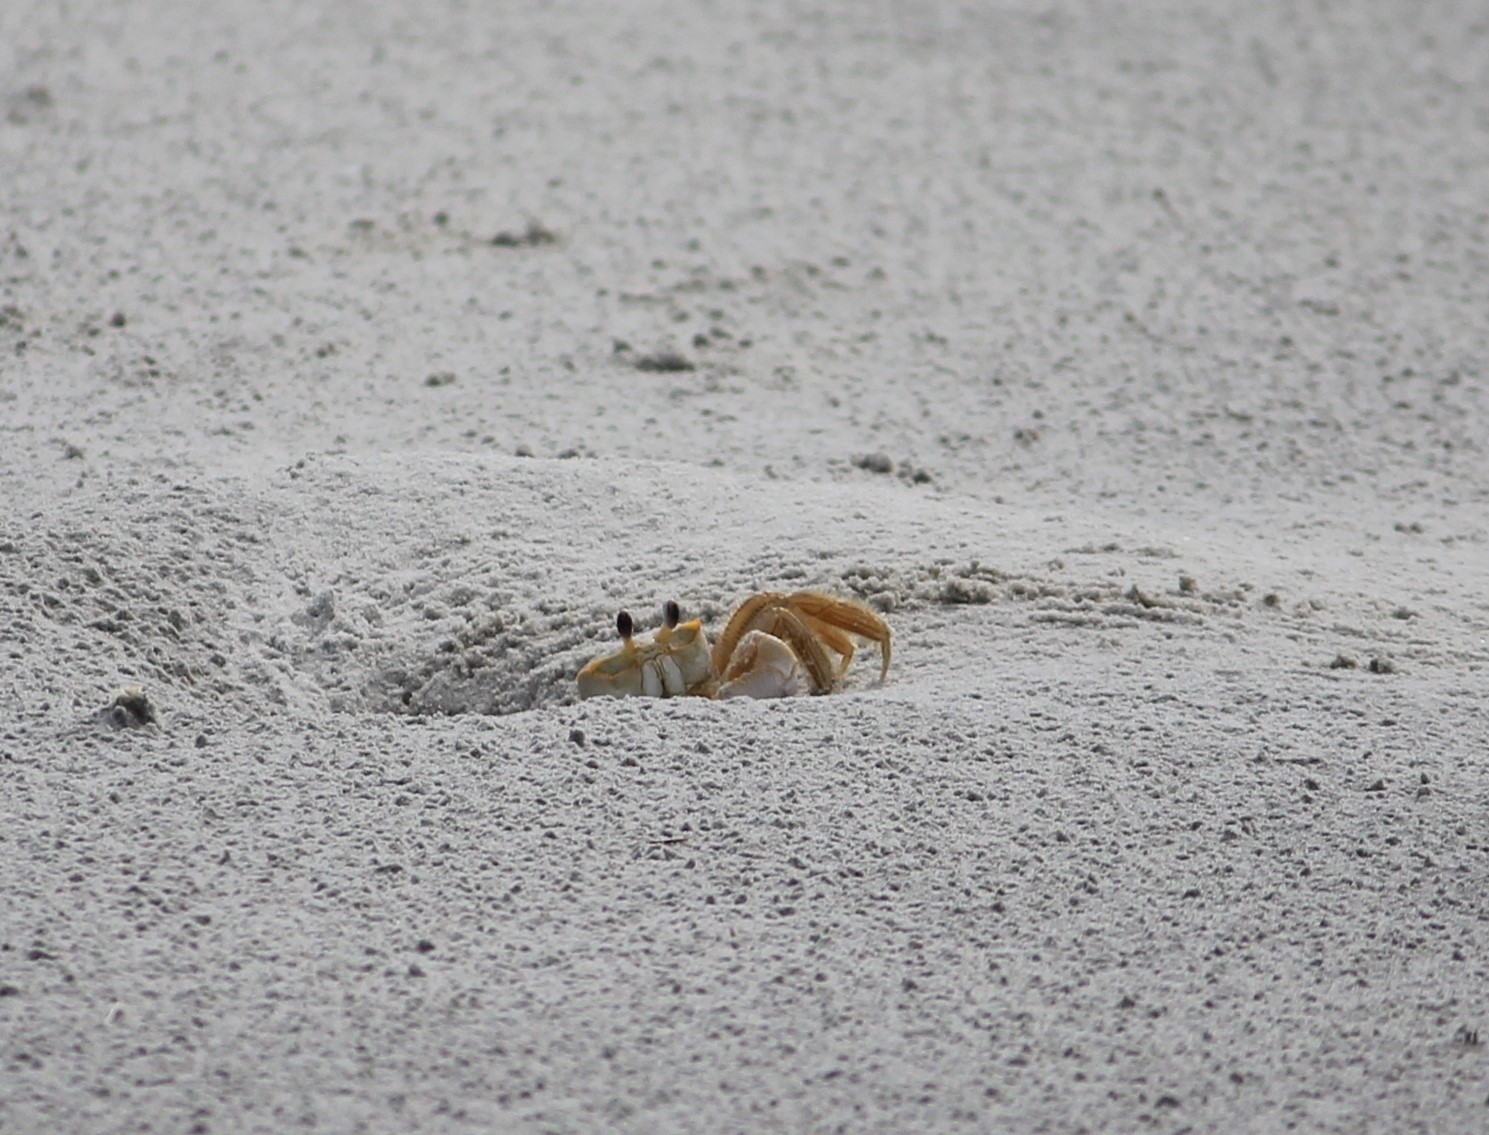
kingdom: Animalia
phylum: Arthropoda
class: Malacostraca
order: Decapoda
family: Ocypodidae
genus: Ocypode
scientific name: Ocypode quadrata
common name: Ghost crab
